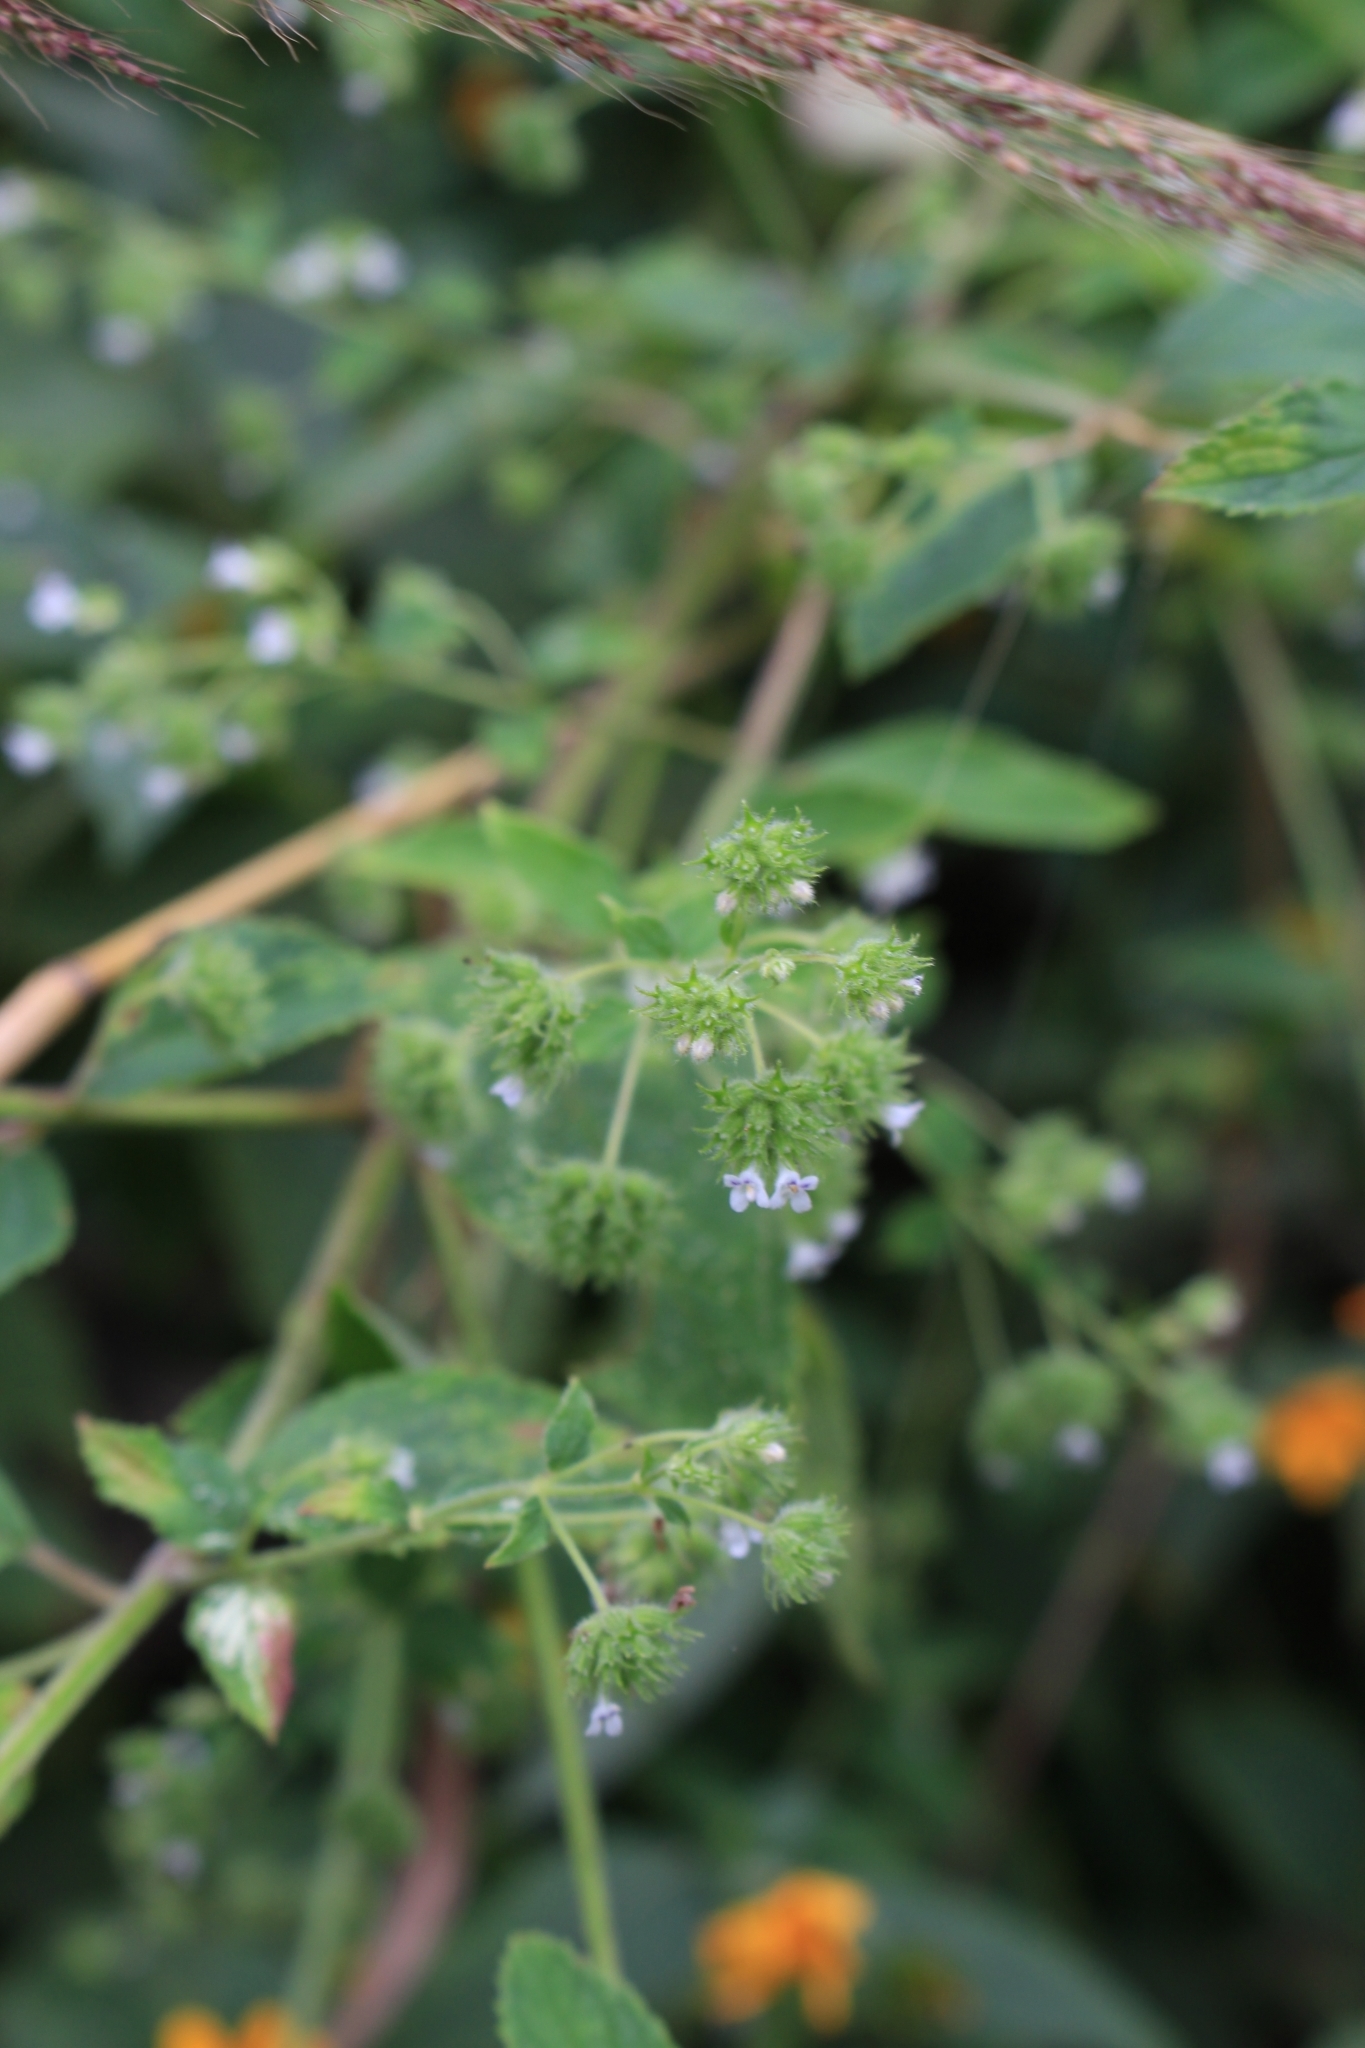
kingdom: Plantae
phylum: Tracheophyta
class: Magnoliopsida
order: Lamiales
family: Lamiaceae
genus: Mesosphaerum
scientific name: Mesosphaerum urticoides
